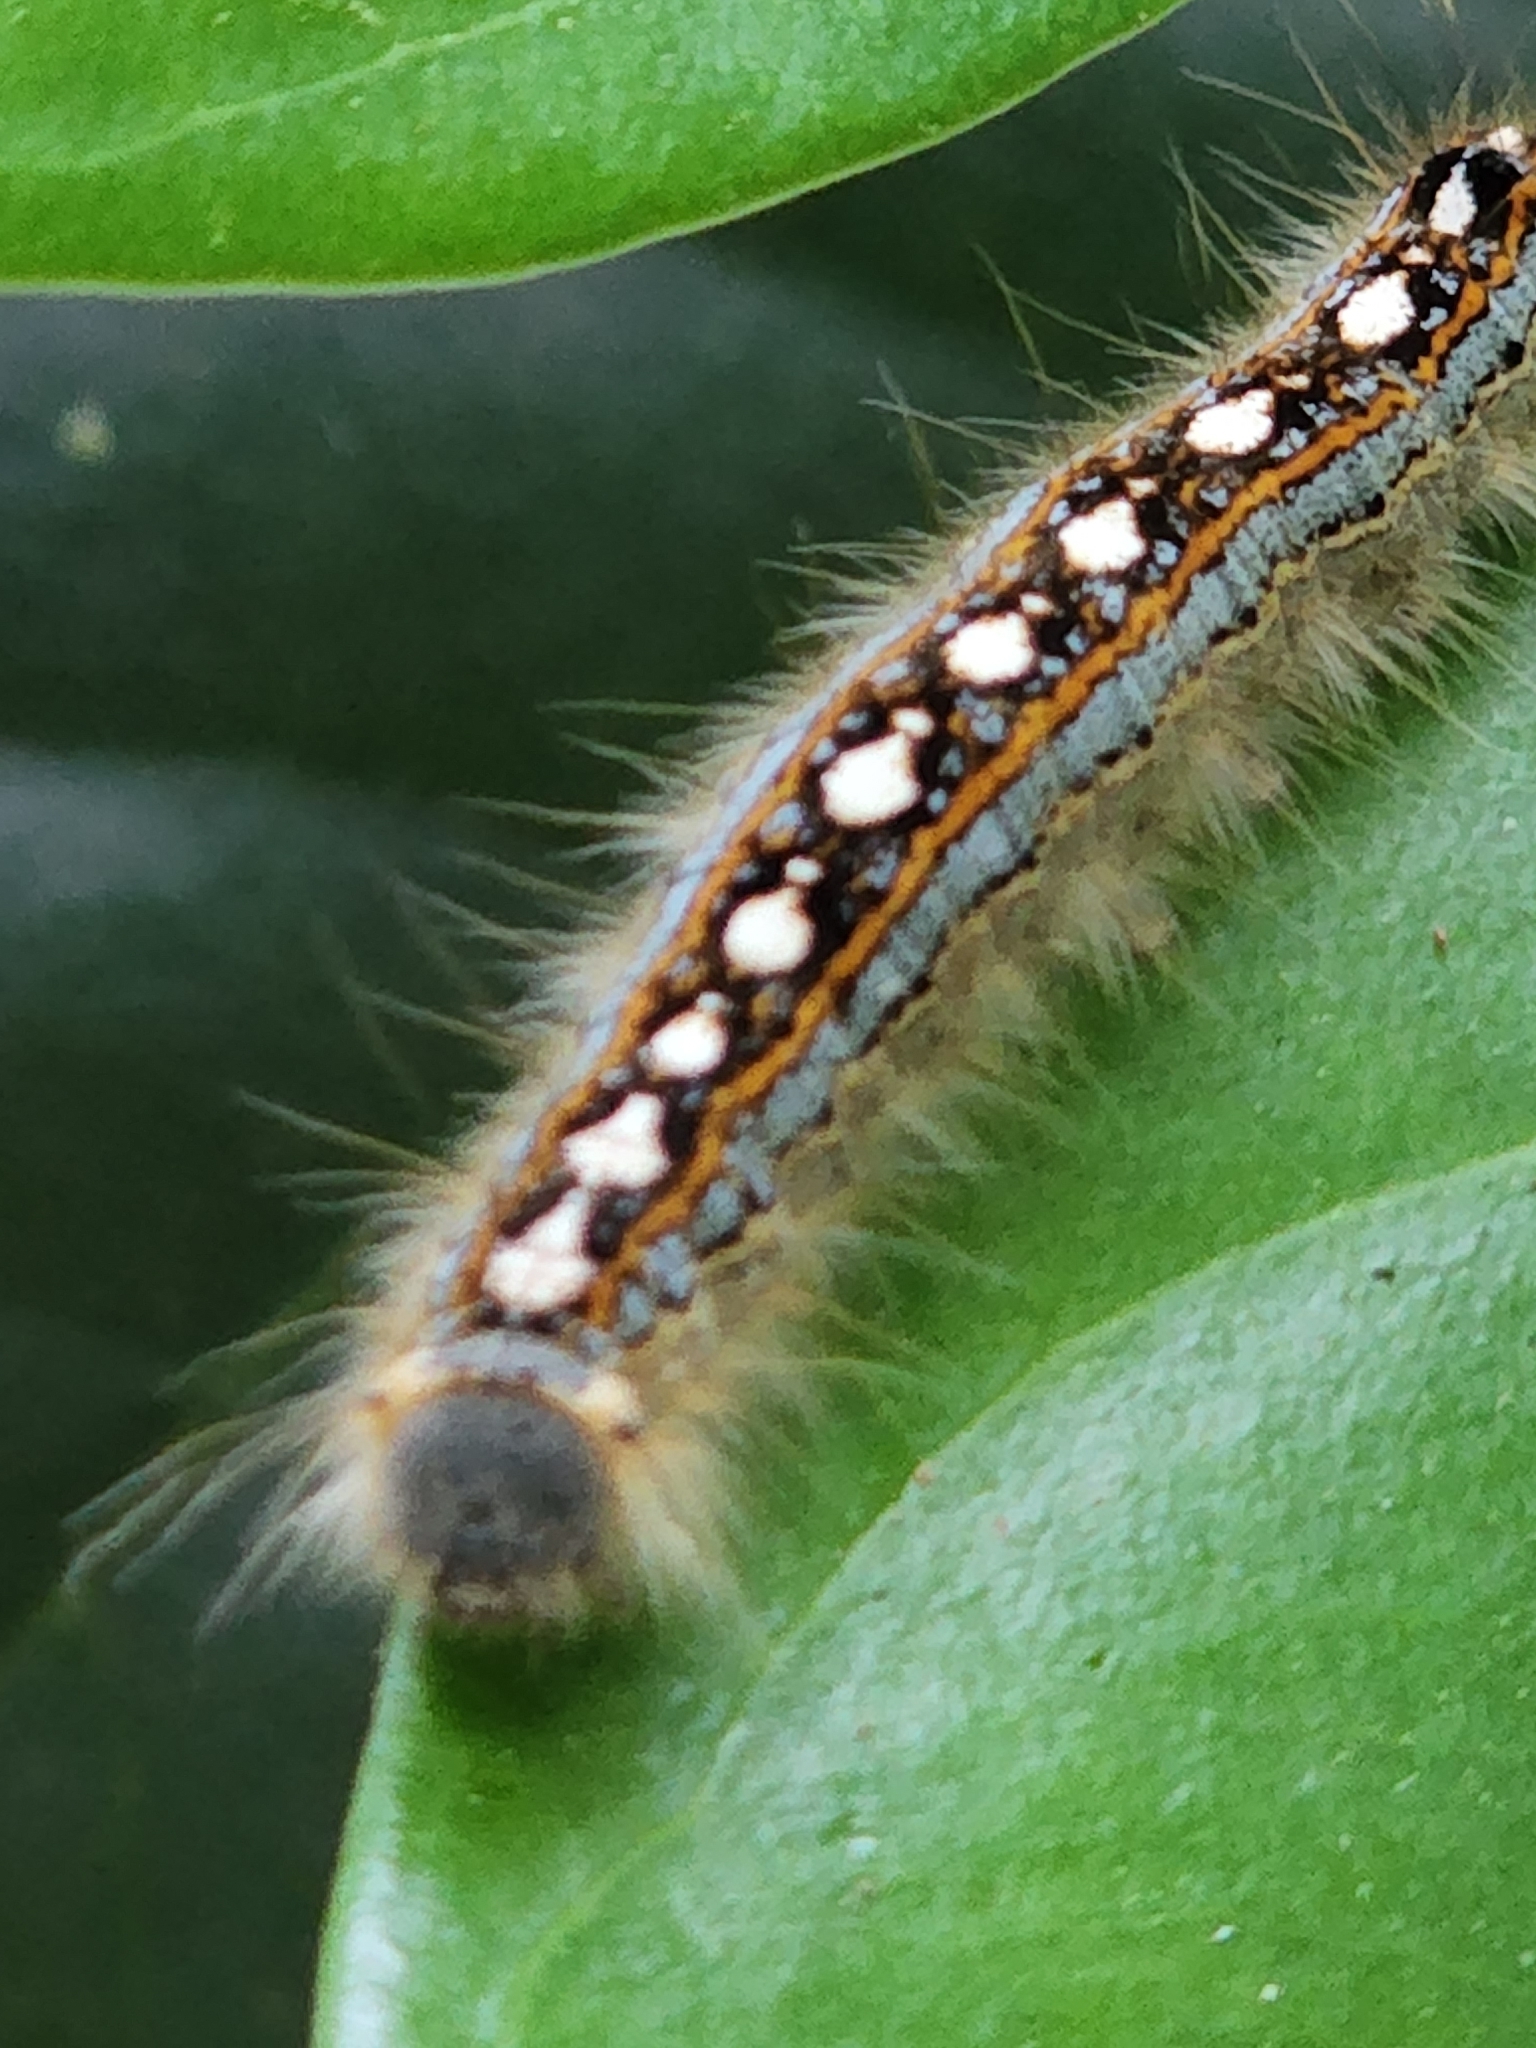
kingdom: Animalia
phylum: Arthropoda
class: Insecta
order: Lepidoptera
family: Lasiocampidae
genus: Malacosoma
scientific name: Malacosoma disstria
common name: Forest tent caterpillar
